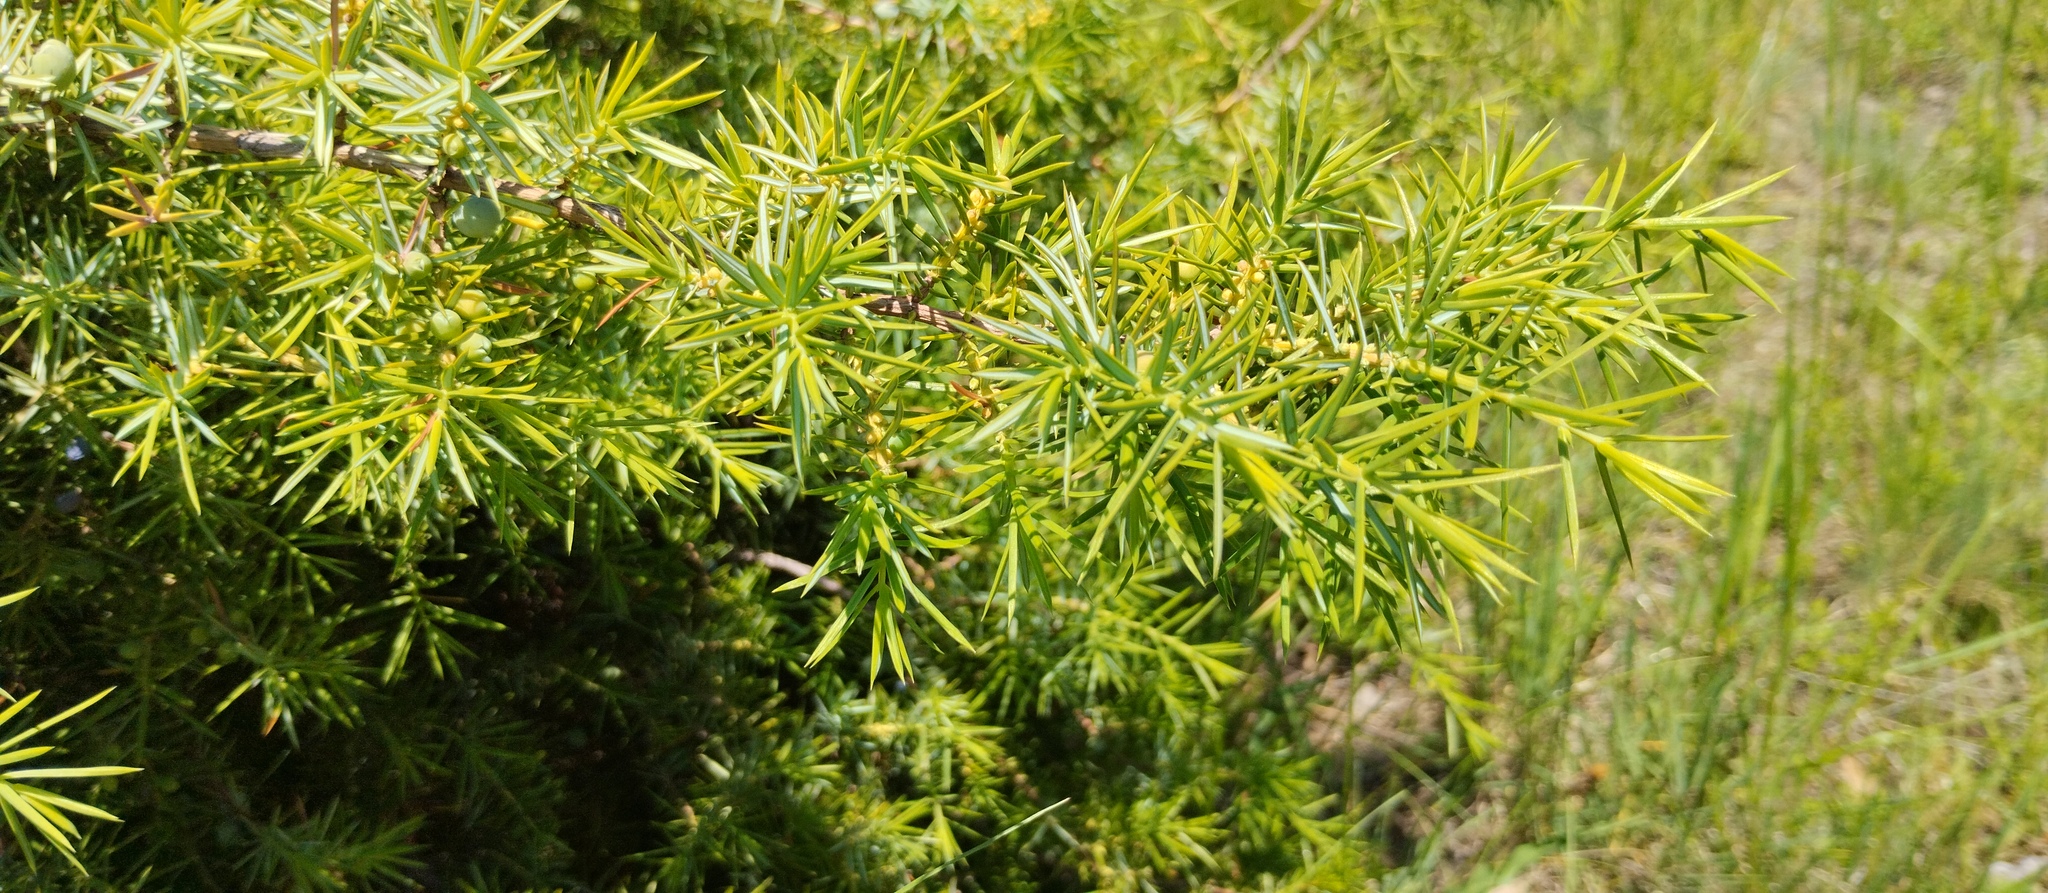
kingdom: Plantae
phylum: Tracheophyta
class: Pinopsida
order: Pinales
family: Cupressaceae
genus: Juniperus
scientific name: Juniperus communis
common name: Common juniper
